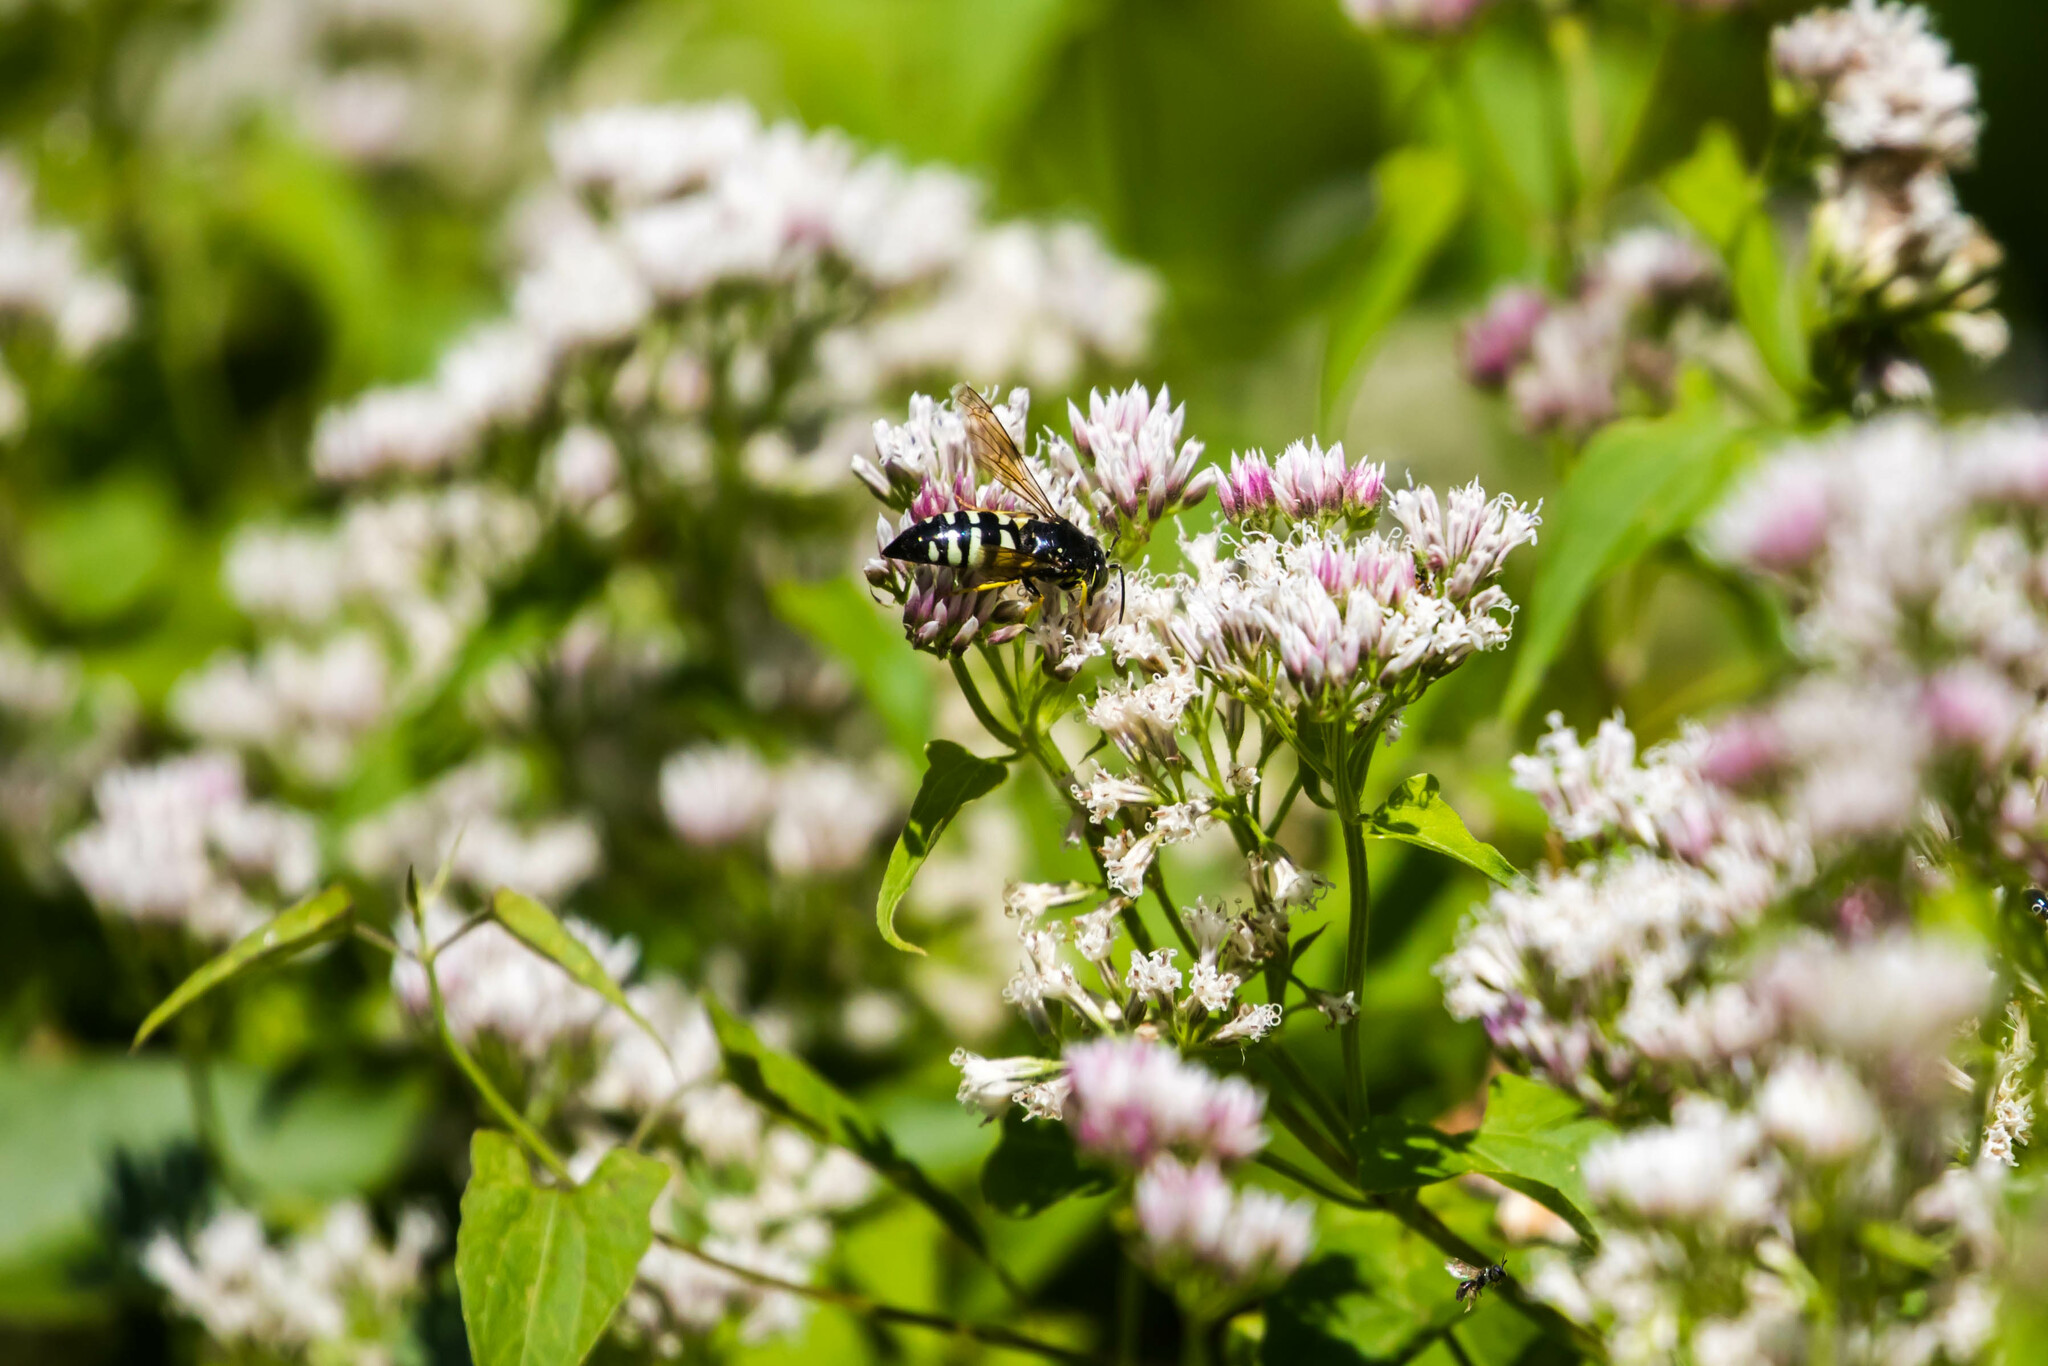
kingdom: Animalia
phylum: Arthropoda
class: Insecta
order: Hymenoptera
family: Crabronidae
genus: Bicyrtes
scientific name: Bicyrtes quadrifasciatus
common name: Four-banded stink bug hunter wasp
